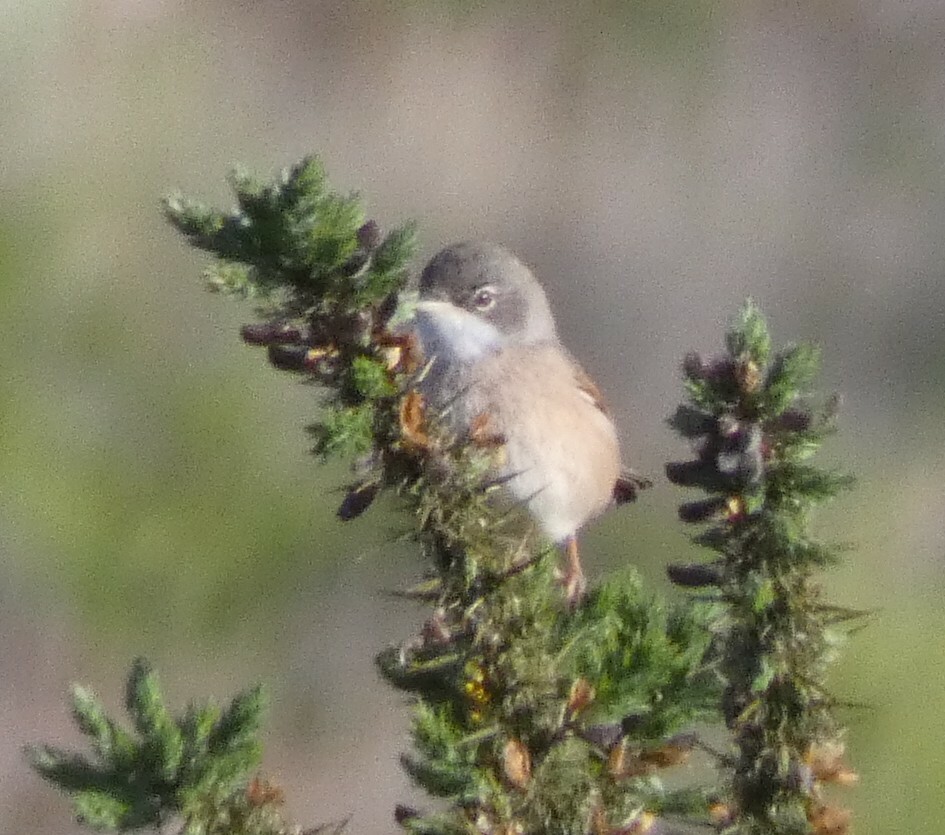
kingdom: Animalia
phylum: Chordata
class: Aves
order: Passeriformes
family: Sylviidae
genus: Sylvia
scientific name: Sylvia conspicillata
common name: Spectacled warbler
